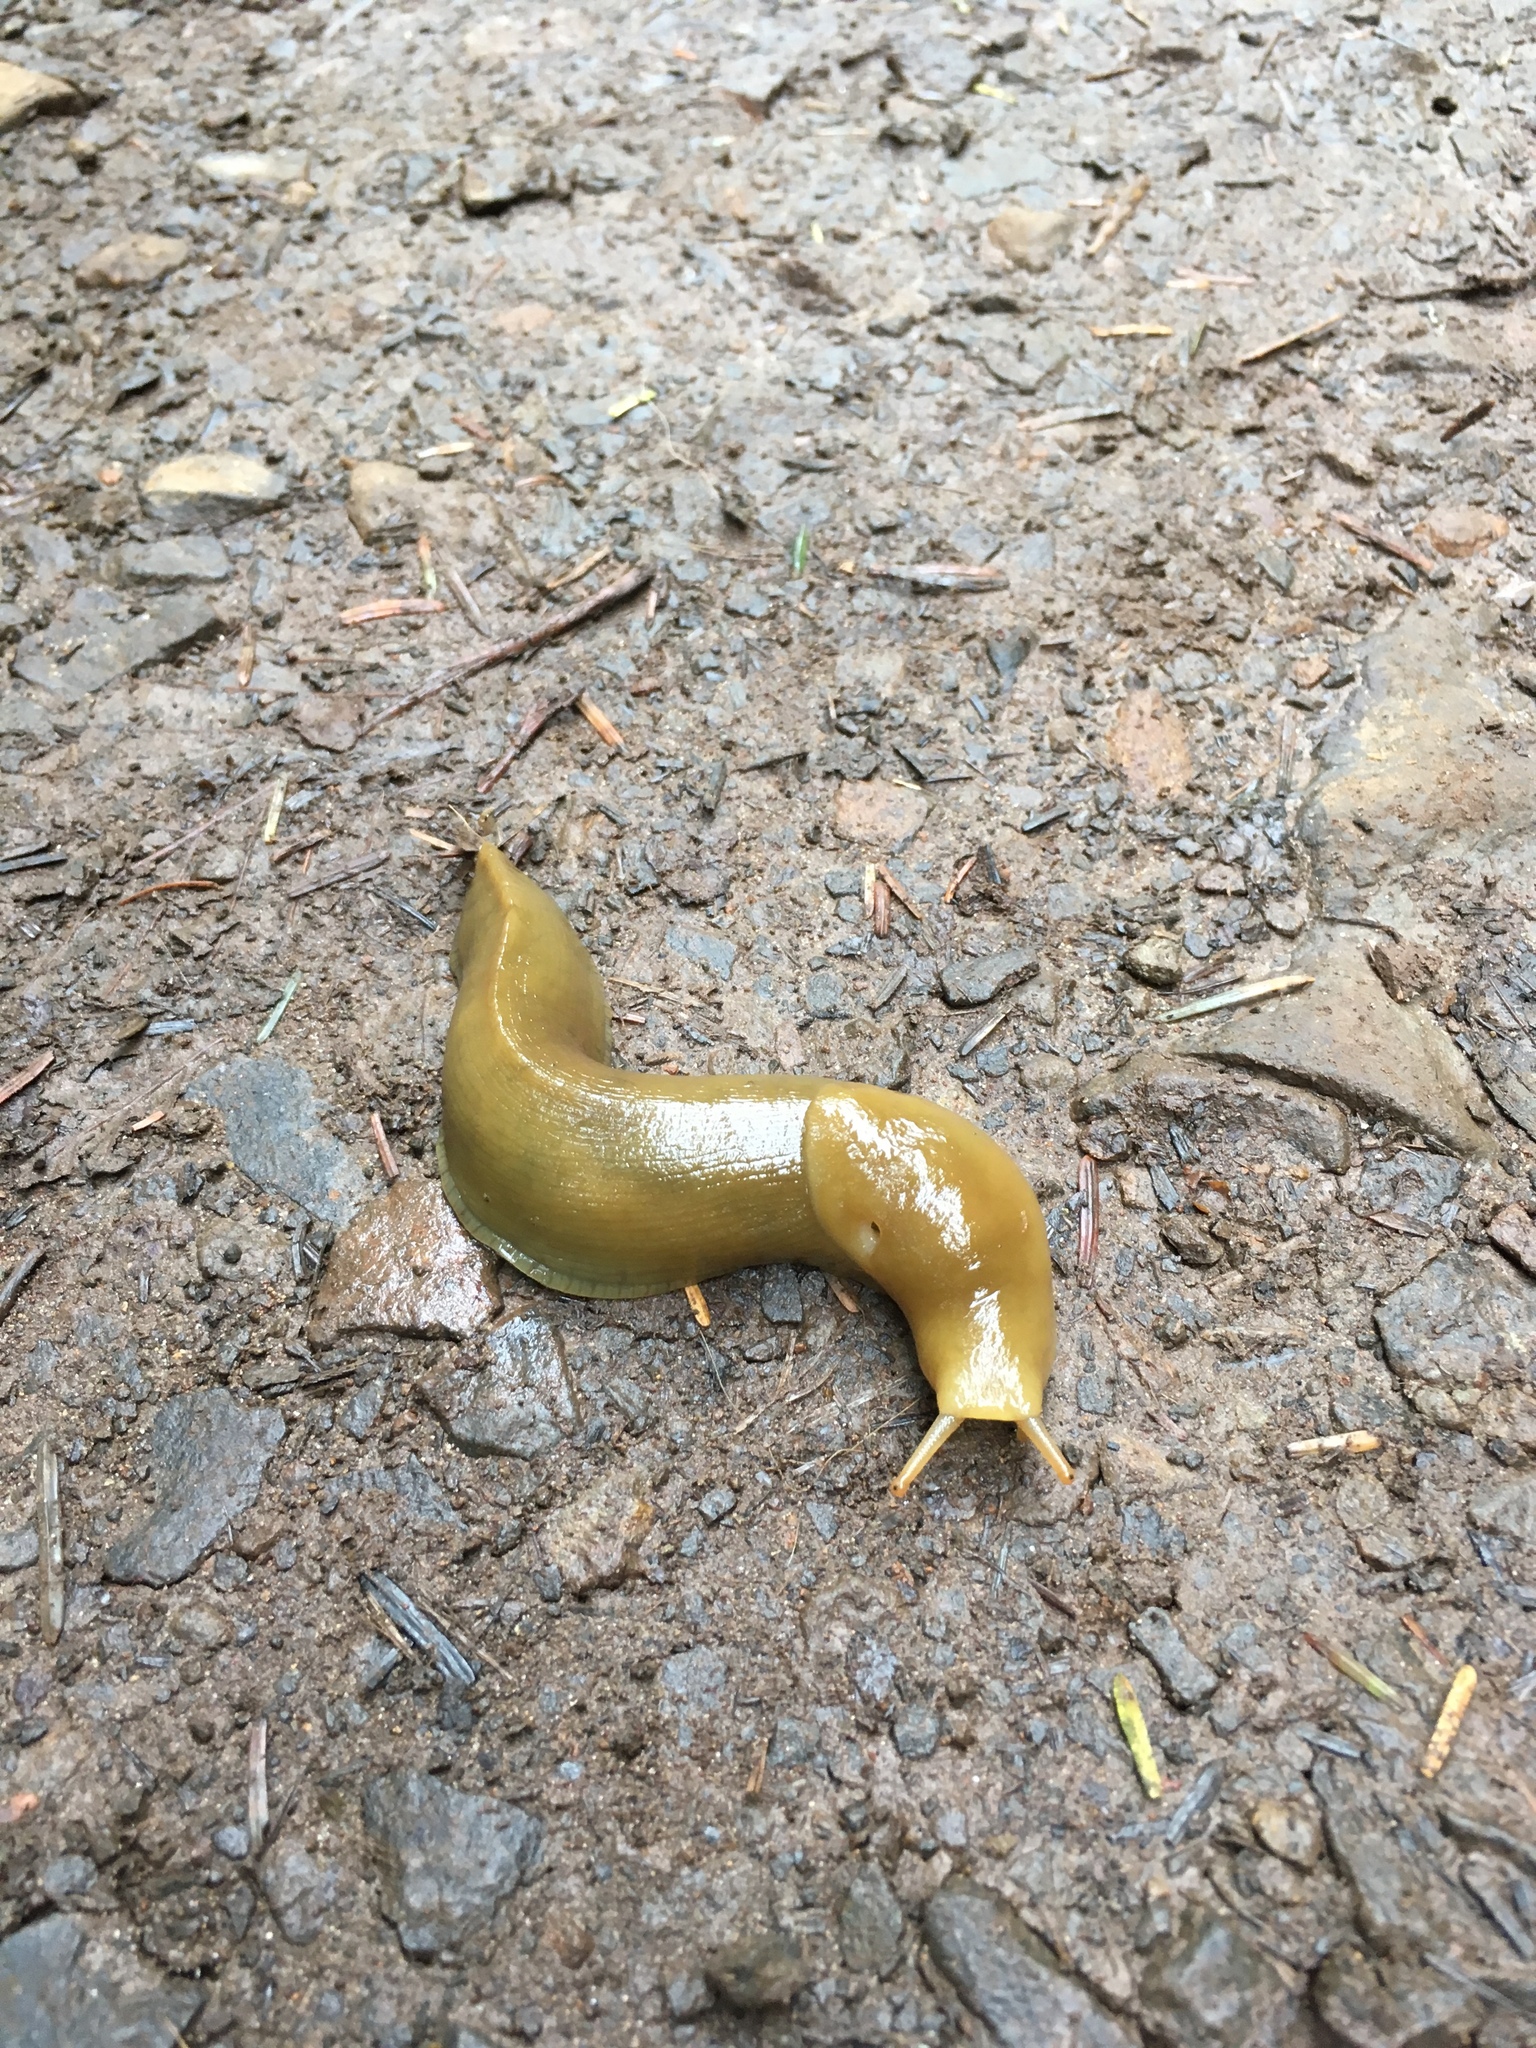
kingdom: Animalia
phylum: Mollusca
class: Gastropoda
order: Stylommatophora
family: Ariolimacidae
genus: Ariolimax
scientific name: Ariolimax columbianus
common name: Pacific banana slug
